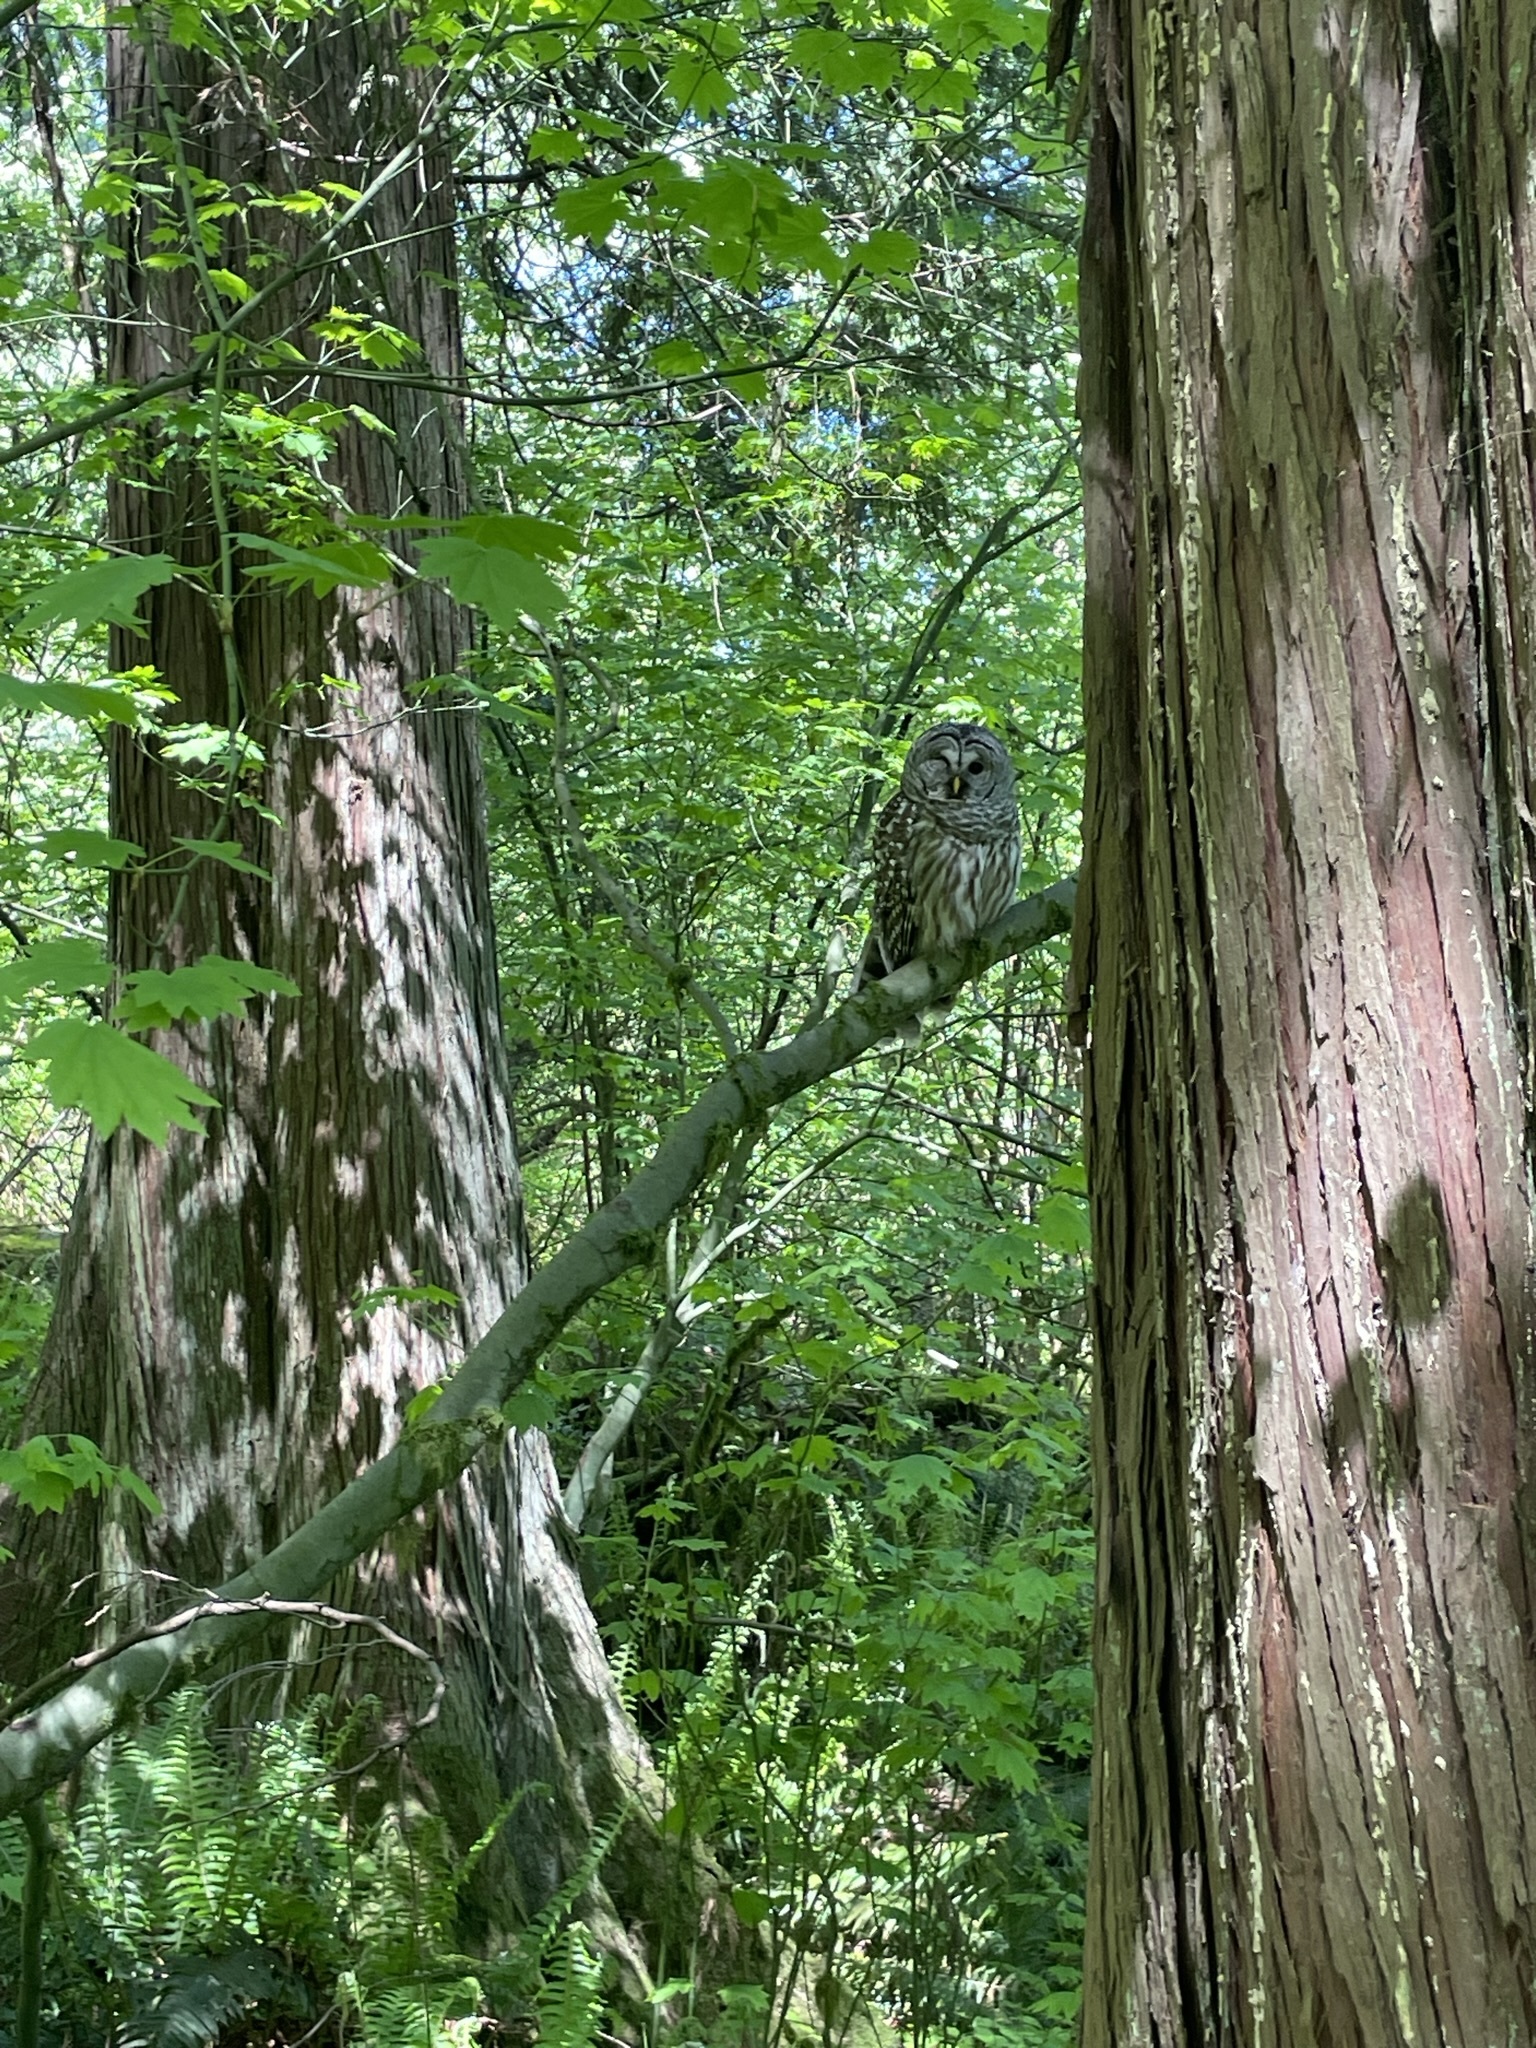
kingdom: Animalia
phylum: Chordata
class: Aves
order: Strigiformes
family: Strigidae
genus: Strix
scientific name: Strix varia
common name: Barred owl
